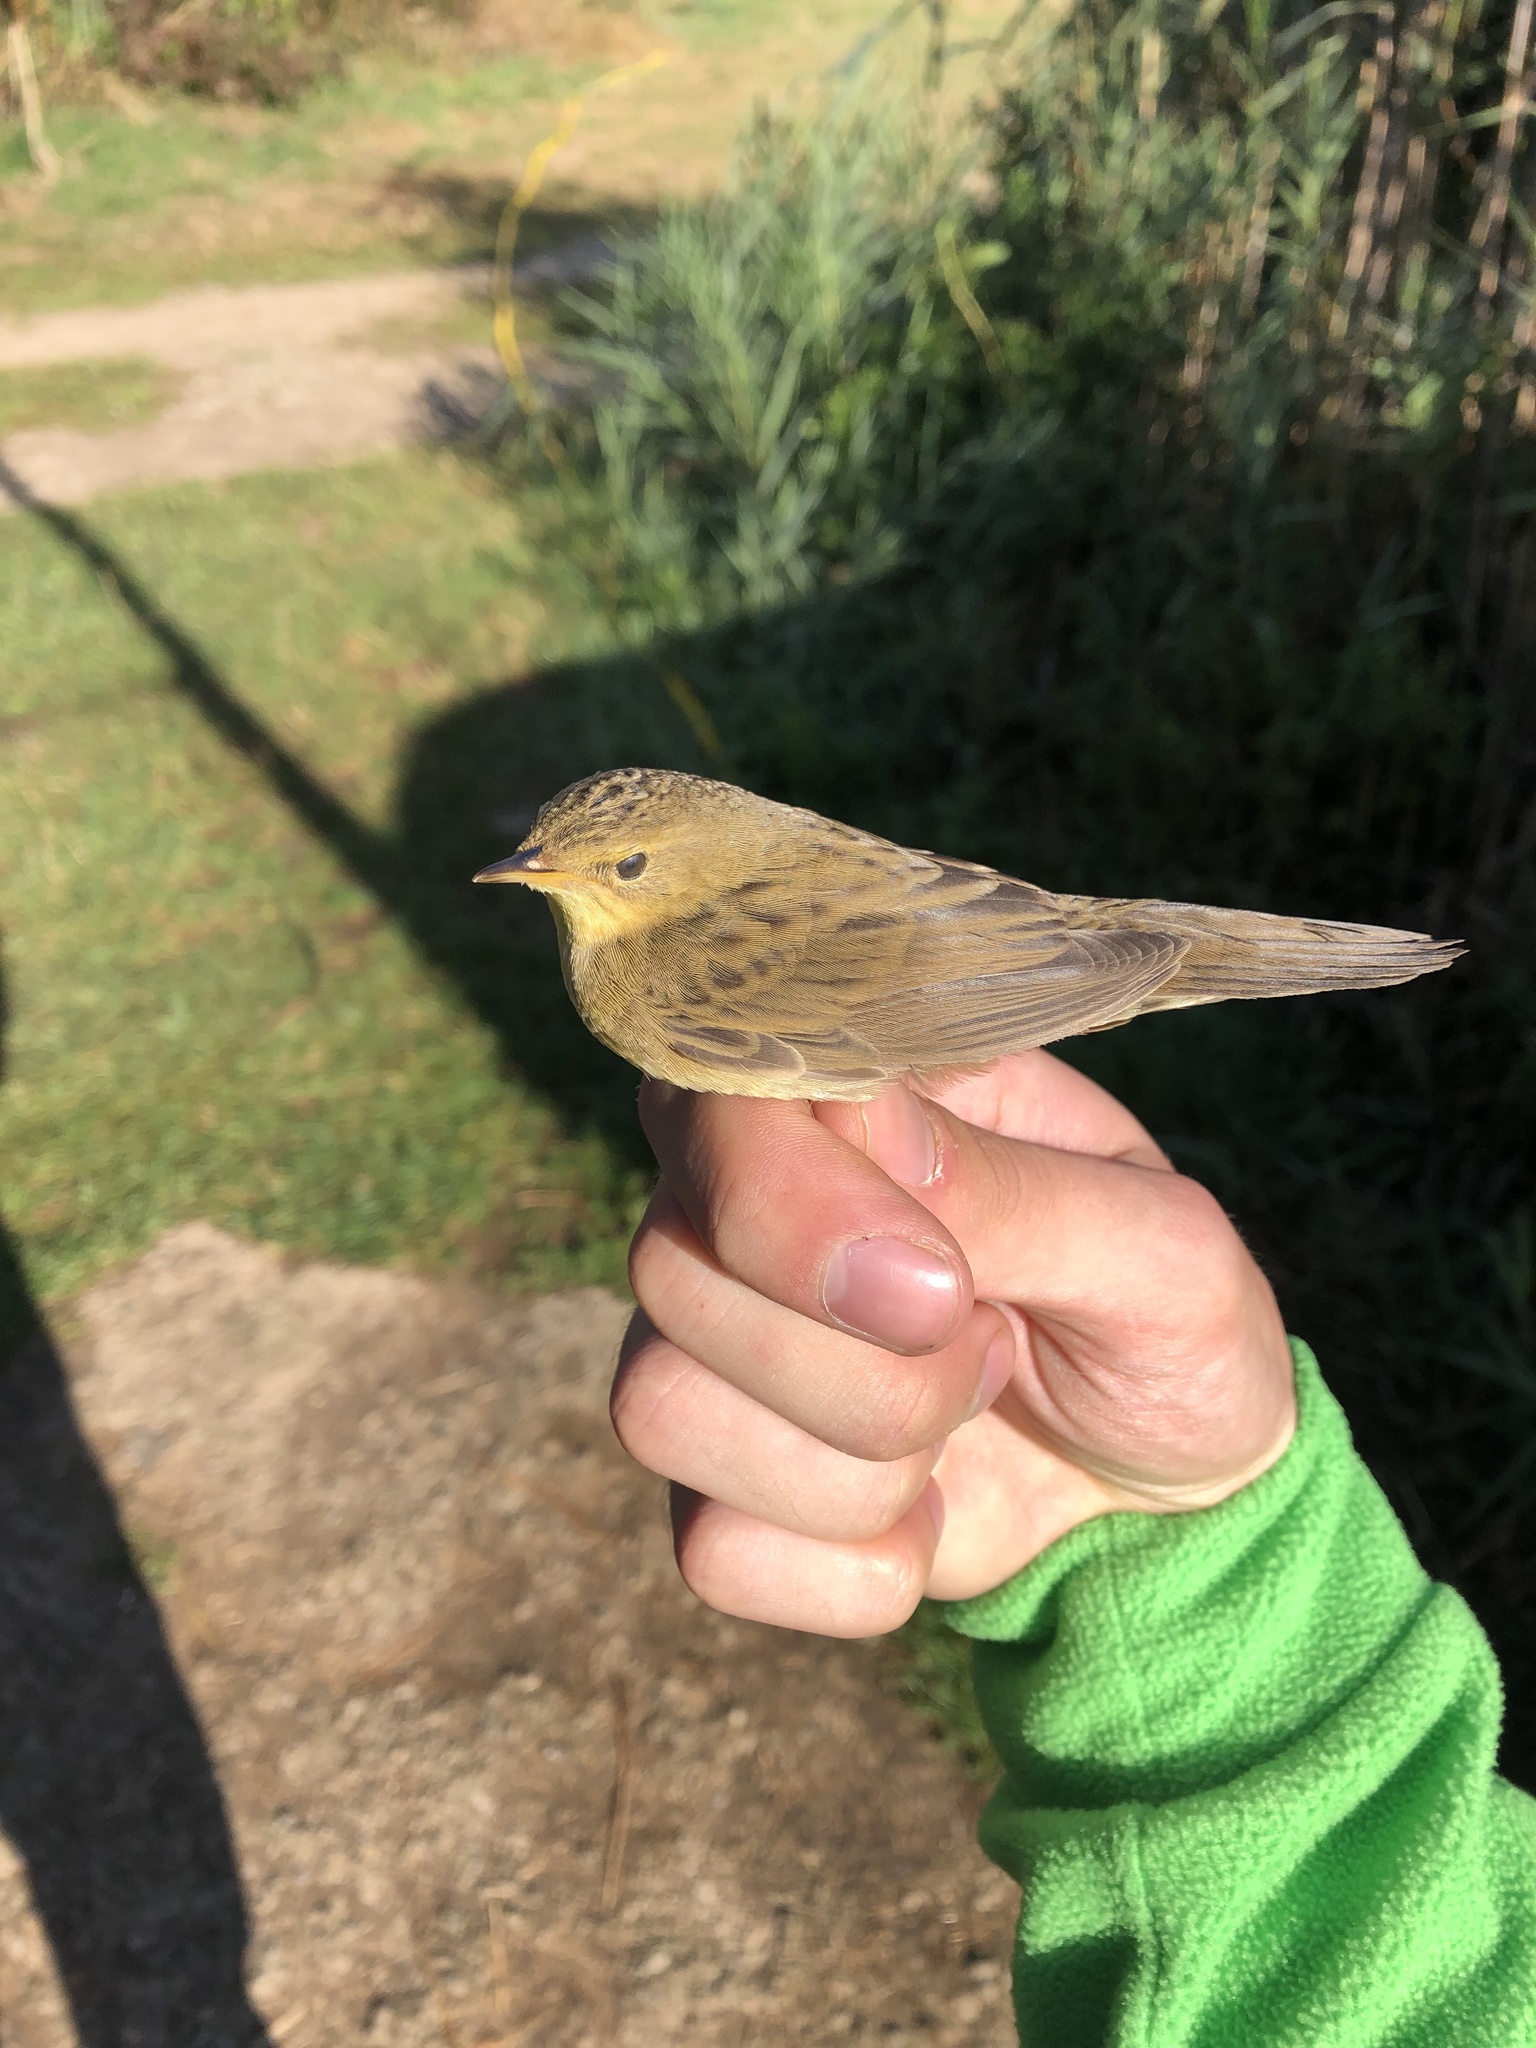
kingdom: Animalia
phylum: Chordata
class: Aves
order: Passeriformes
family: Locustellidae
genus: Locustella
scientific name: Locustella naevia
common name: Common grasshopper warbler
